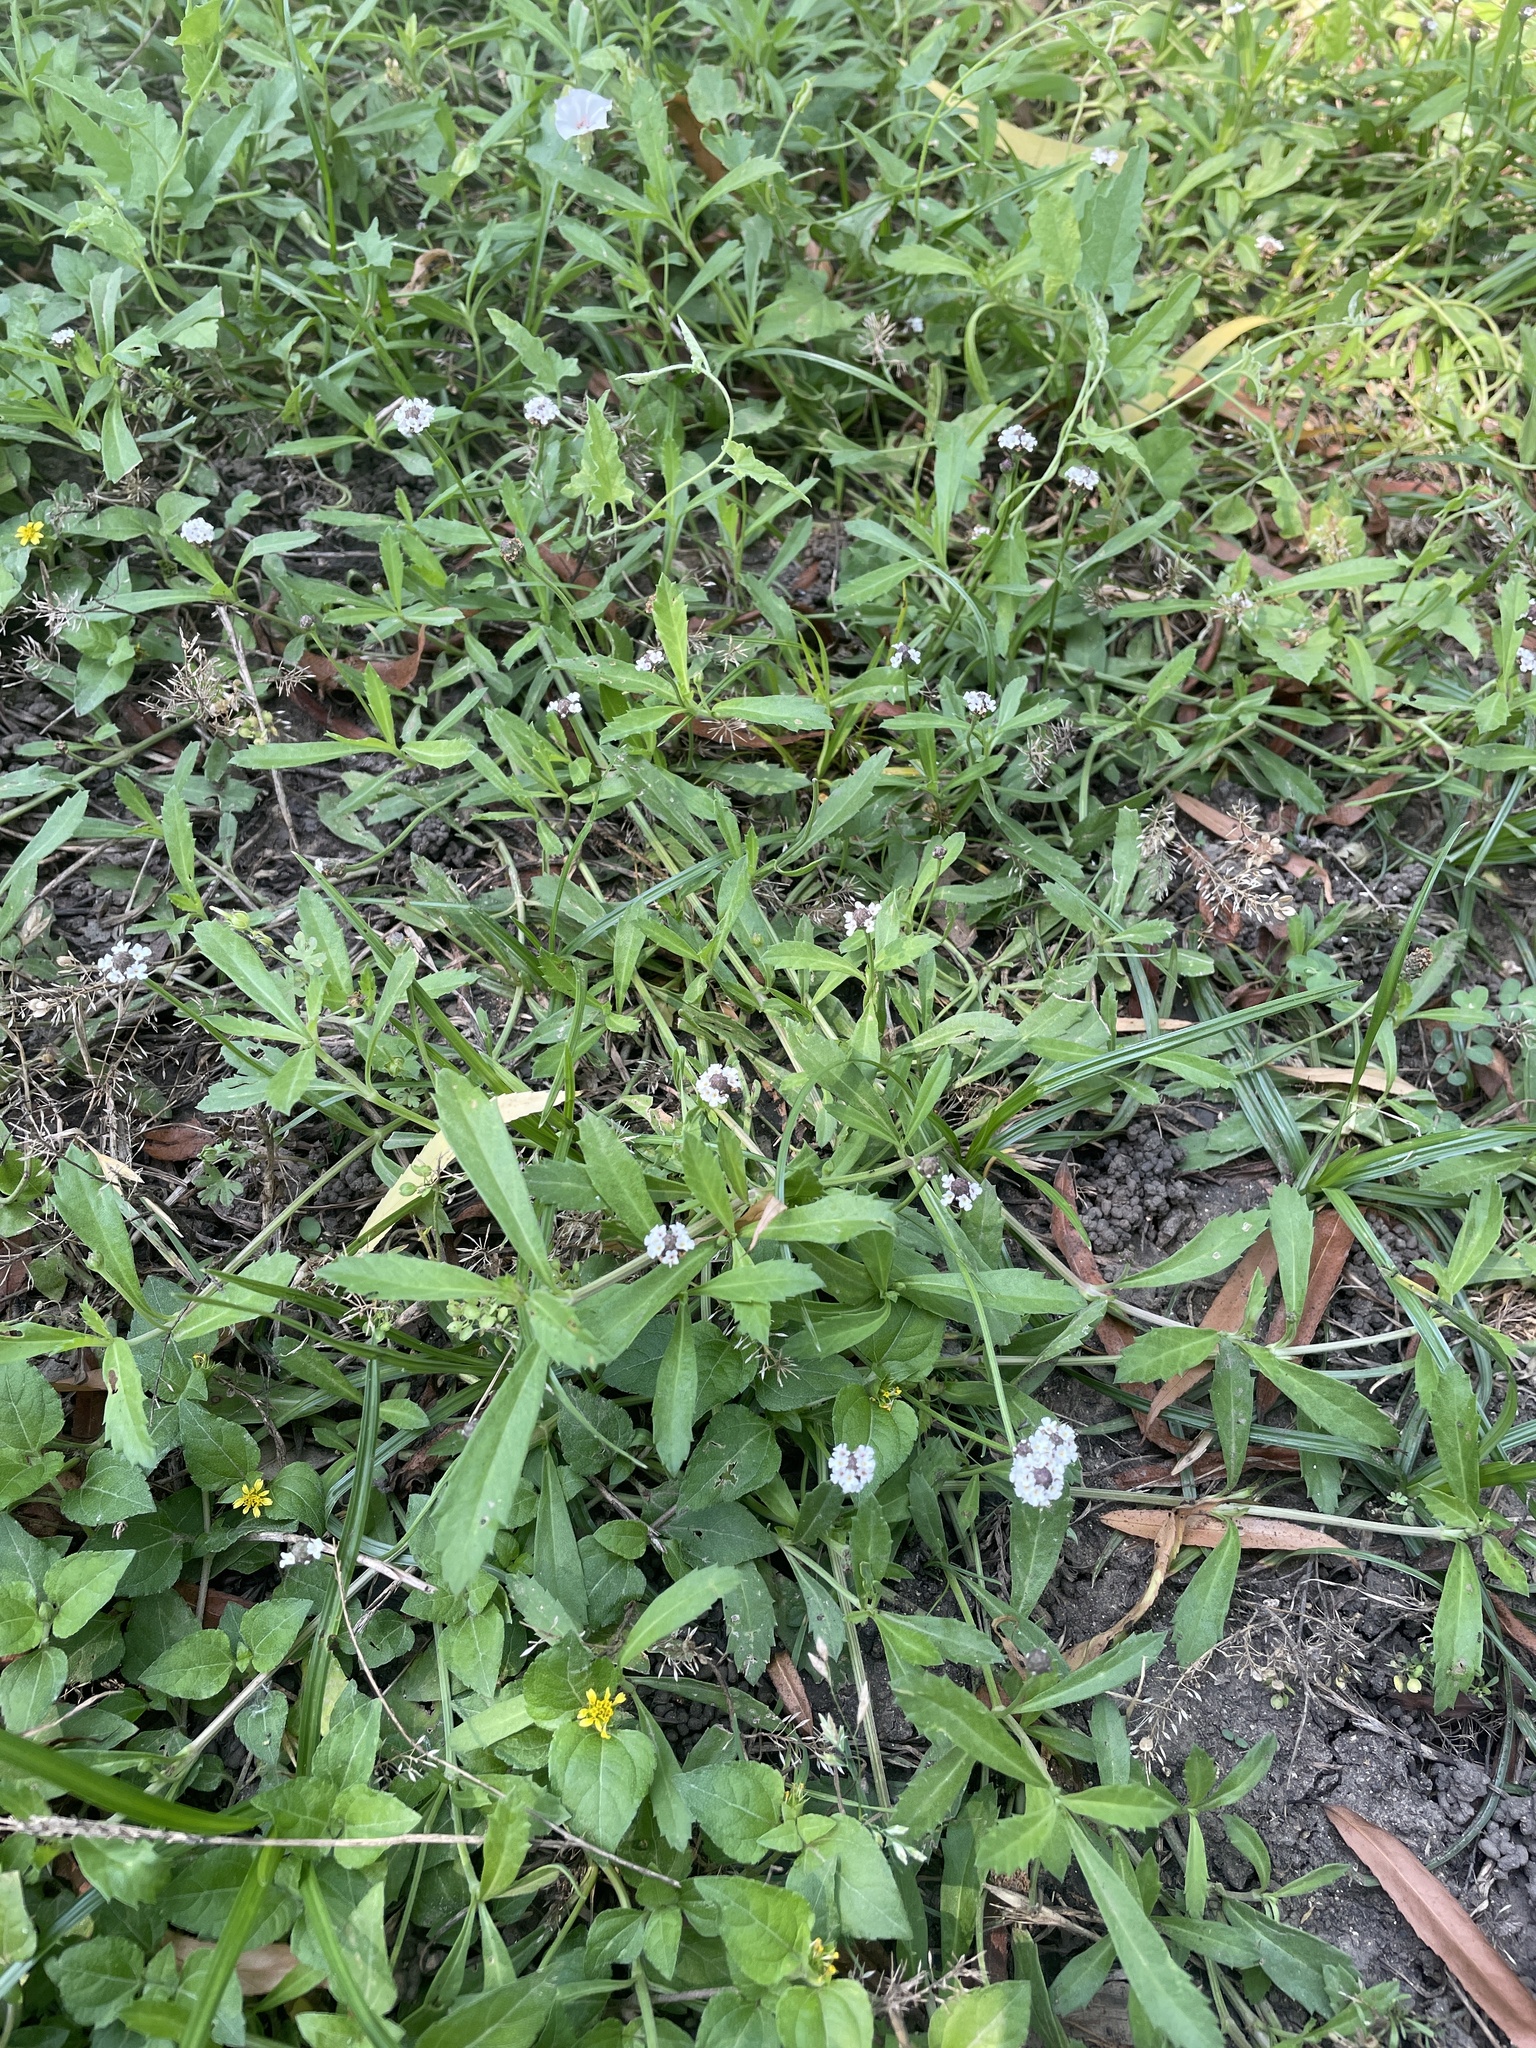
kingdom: Plantae
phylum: Tracheophyta
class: Magnoliopsida
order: Lamiales
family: Verbenaceae
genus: Phyla
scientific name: Phyla nodiflora
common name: Frogfruit
